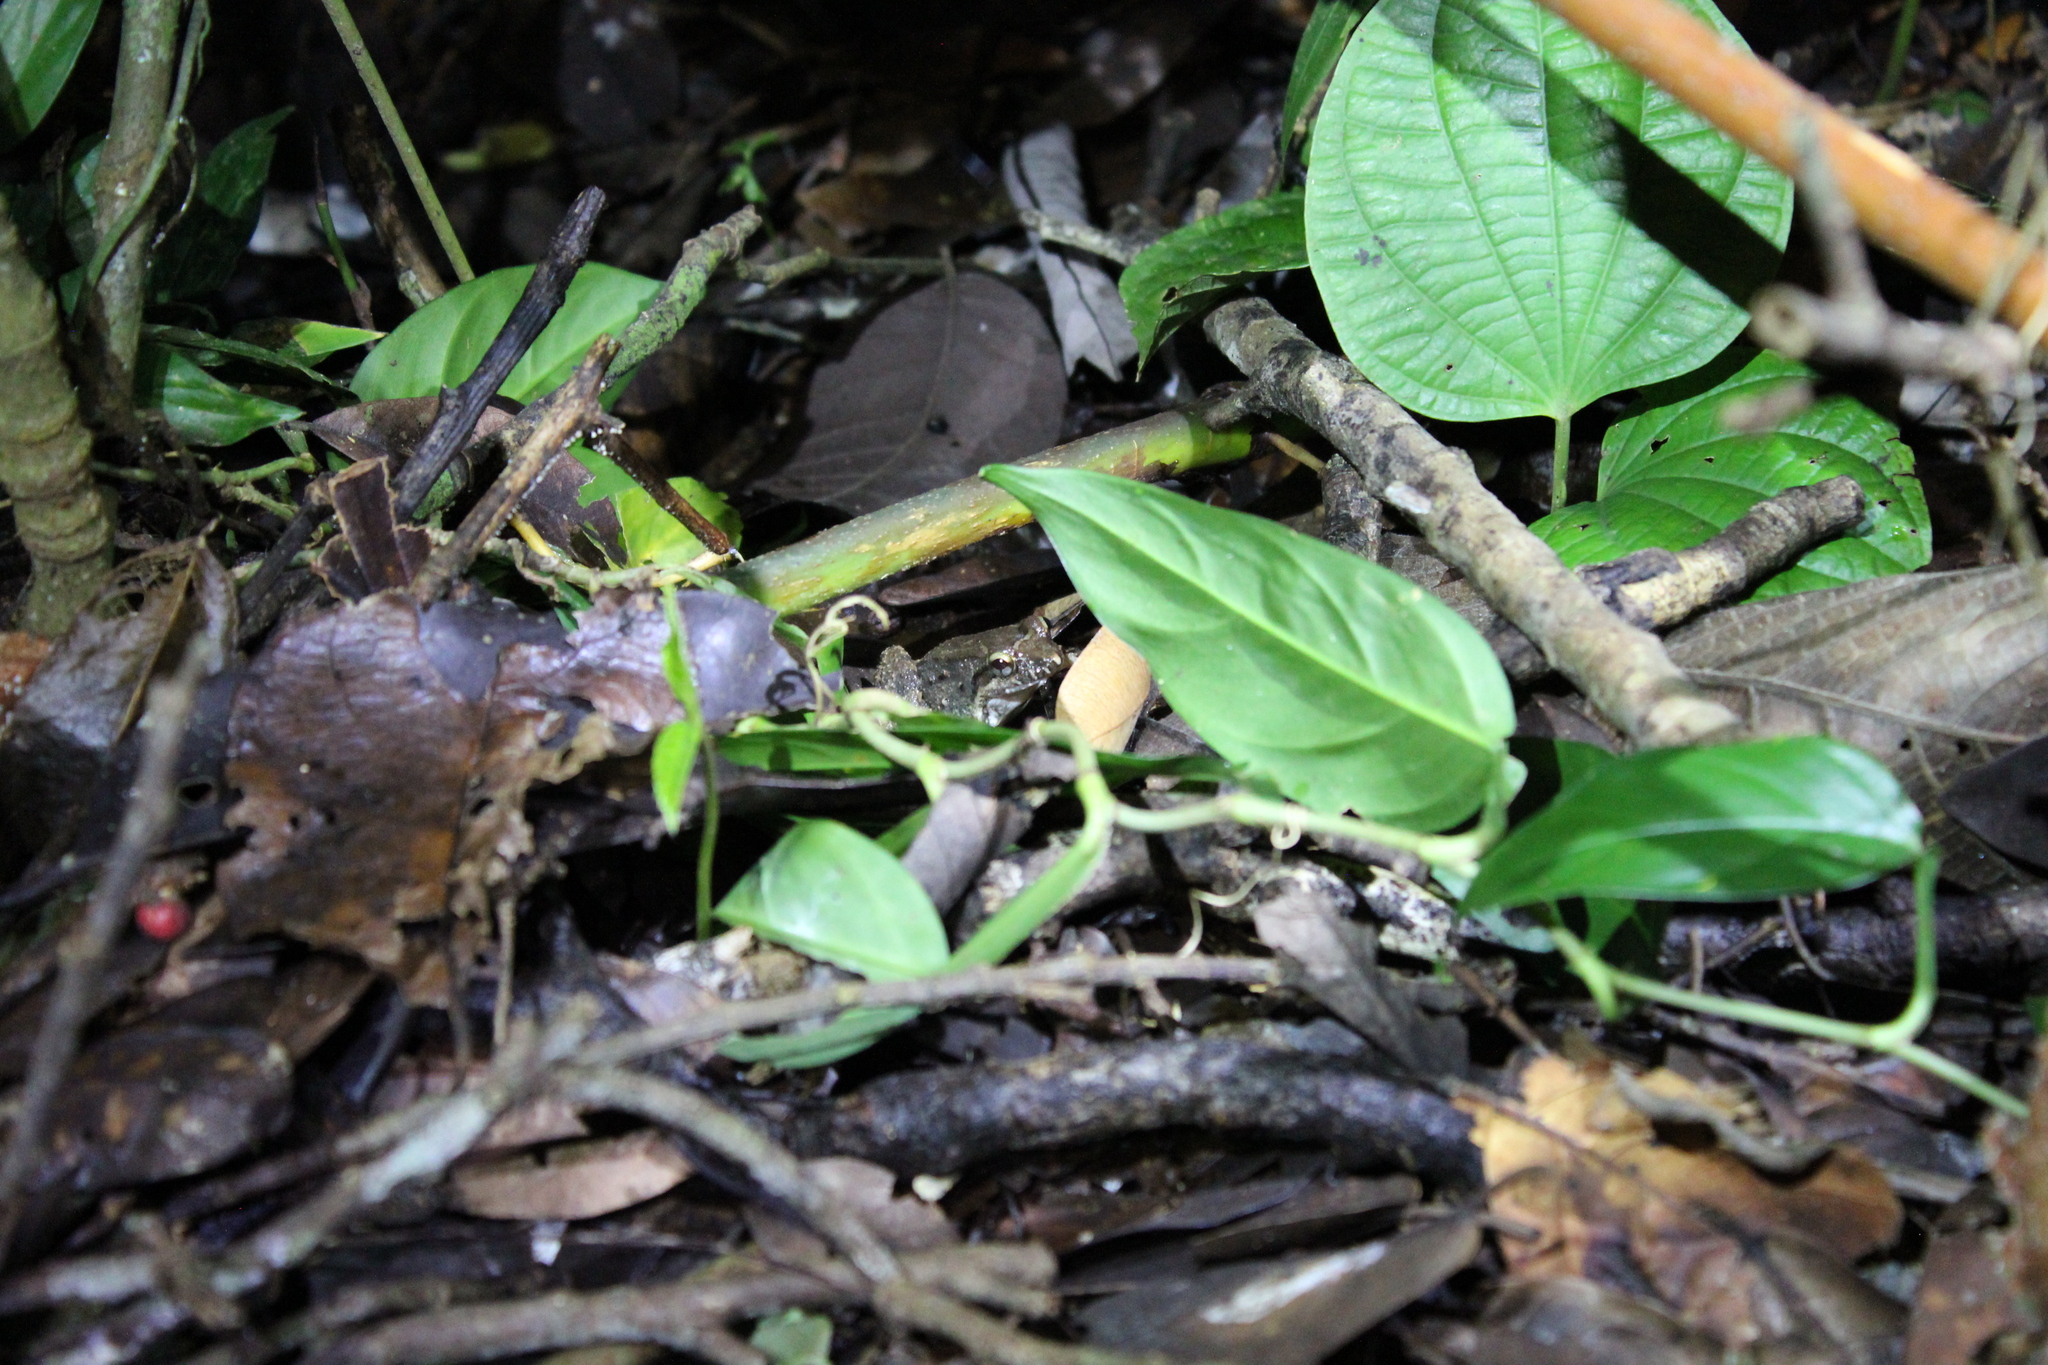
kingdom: Animalia
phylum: Chordata
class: Amphibia
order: Anura
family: Leptodactylidae
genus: Leptodactylus
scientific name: Leptodactylus leptodactyloides
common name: Common thin-toed frog
